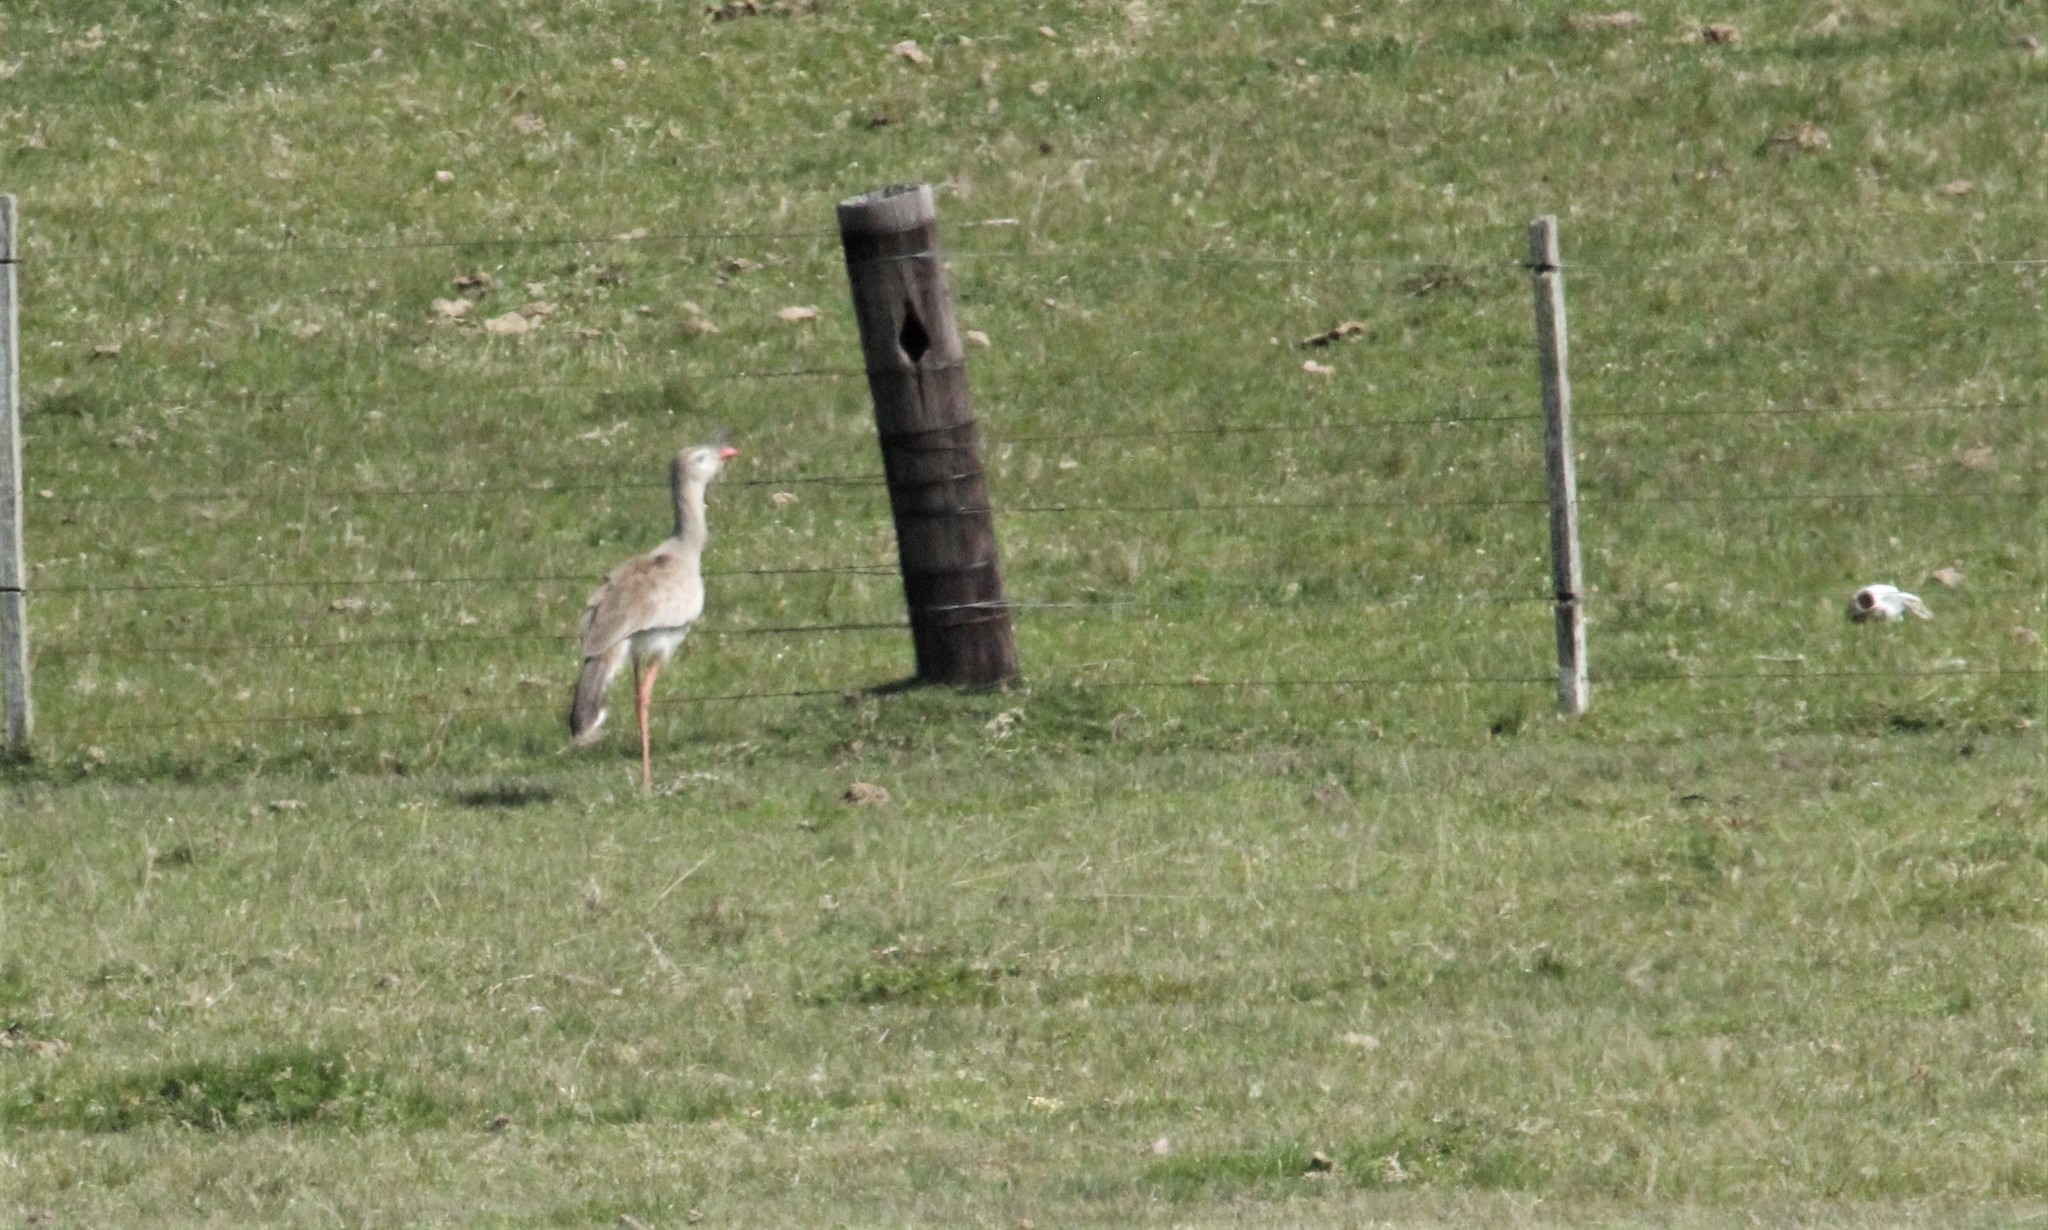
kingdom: Animalia
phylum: Chordata
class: Aves
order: Cariamiformes
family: Cariamidae
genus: Cariama
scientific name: Cariama cristata
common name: Red-legged seriema
